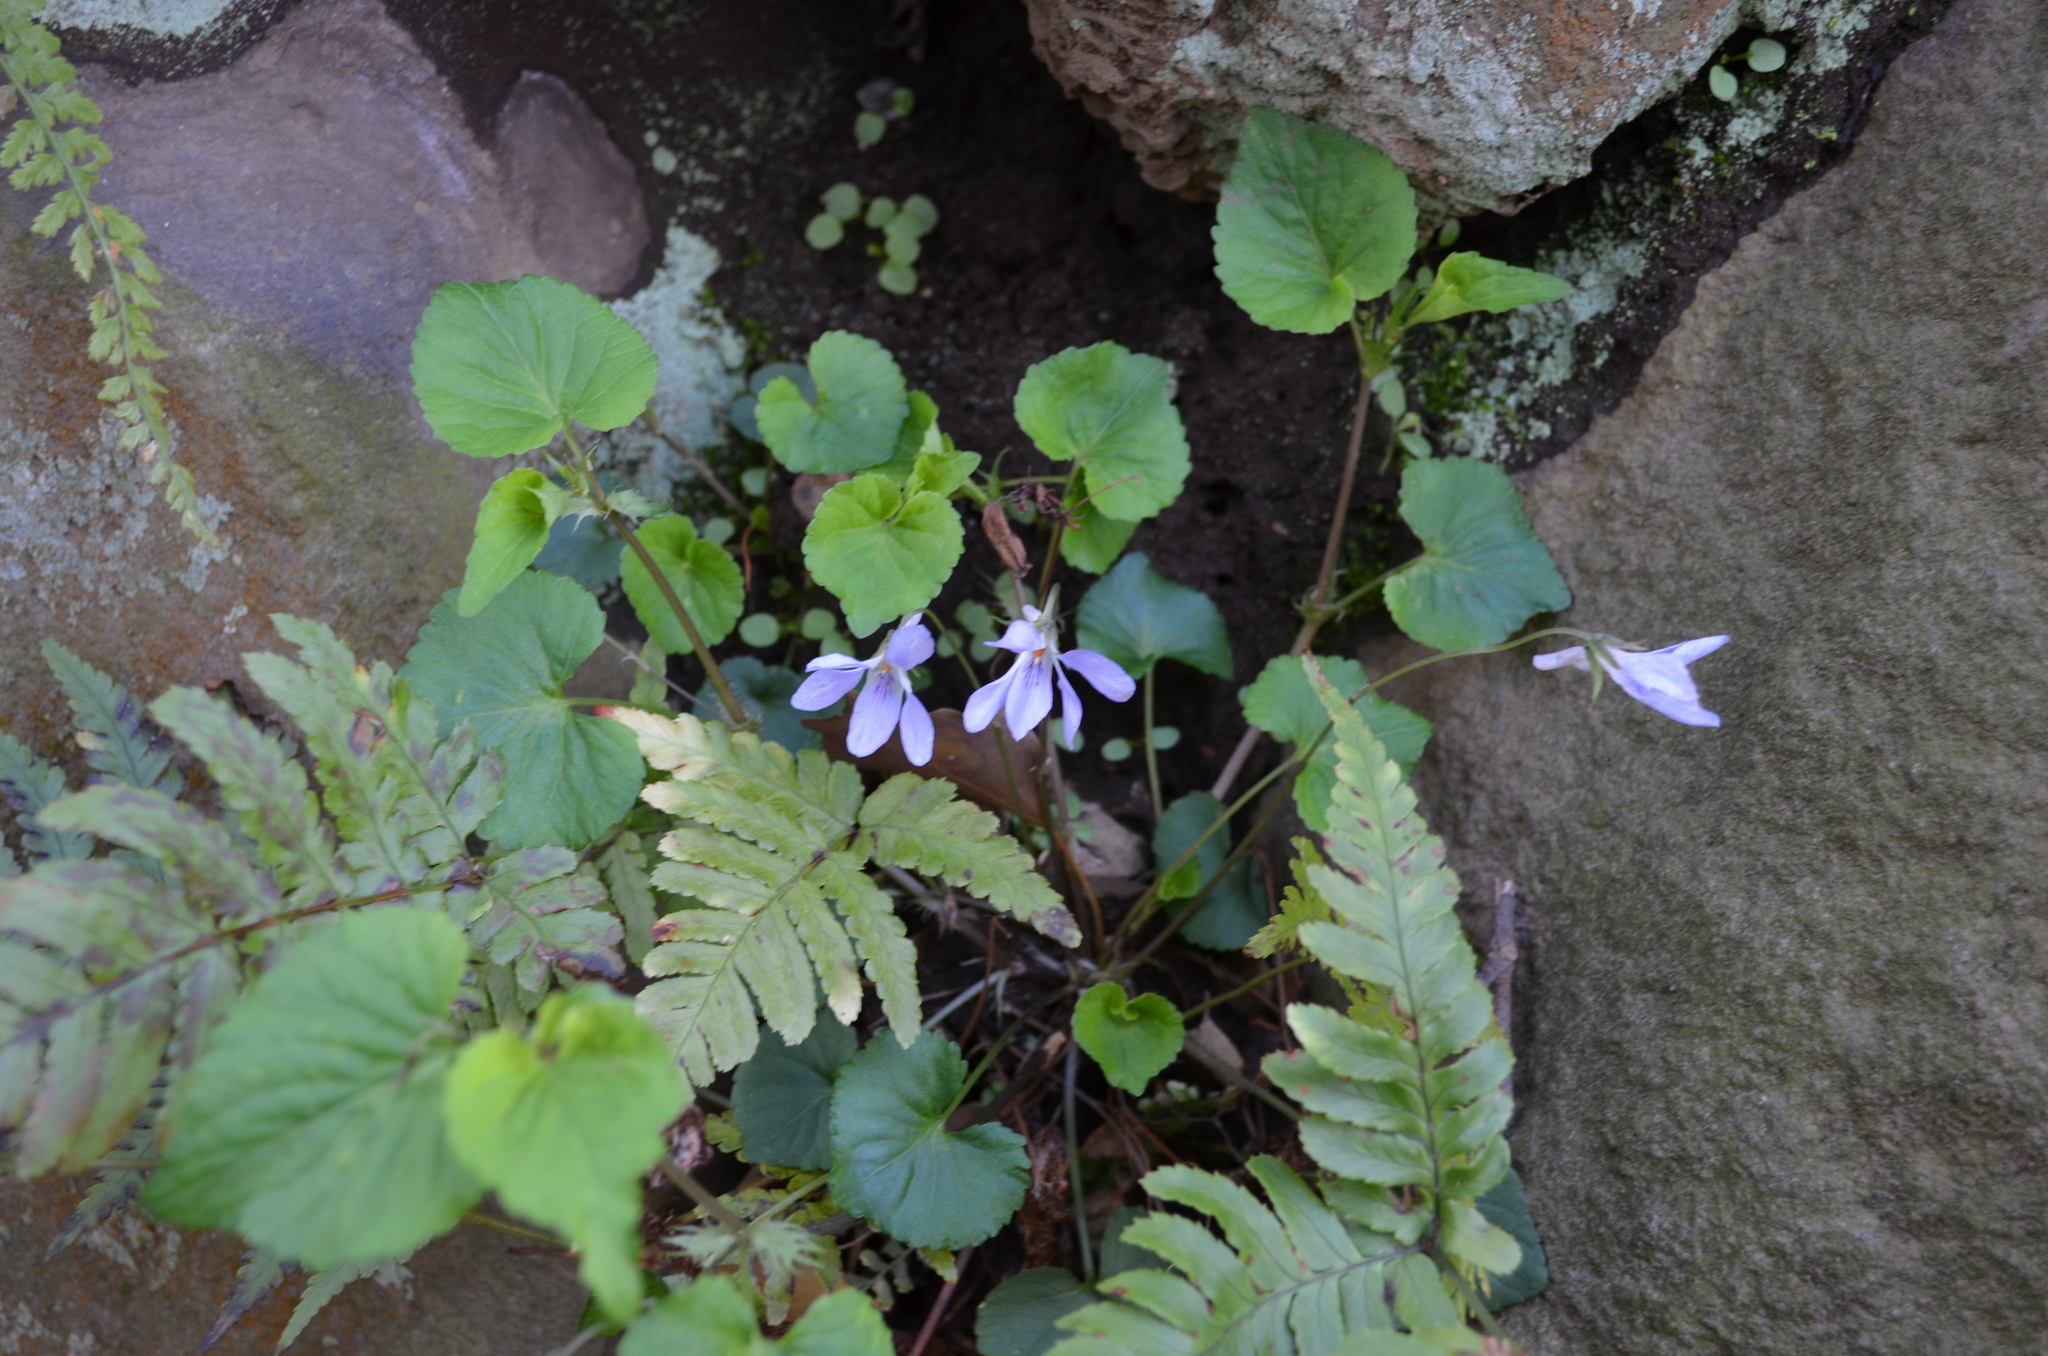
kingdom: Plantae
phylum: Tracheophyta
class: Magnoliopsida
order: Malpighiales
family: Violaceae
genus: Viola
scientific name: Viola grypoceras
